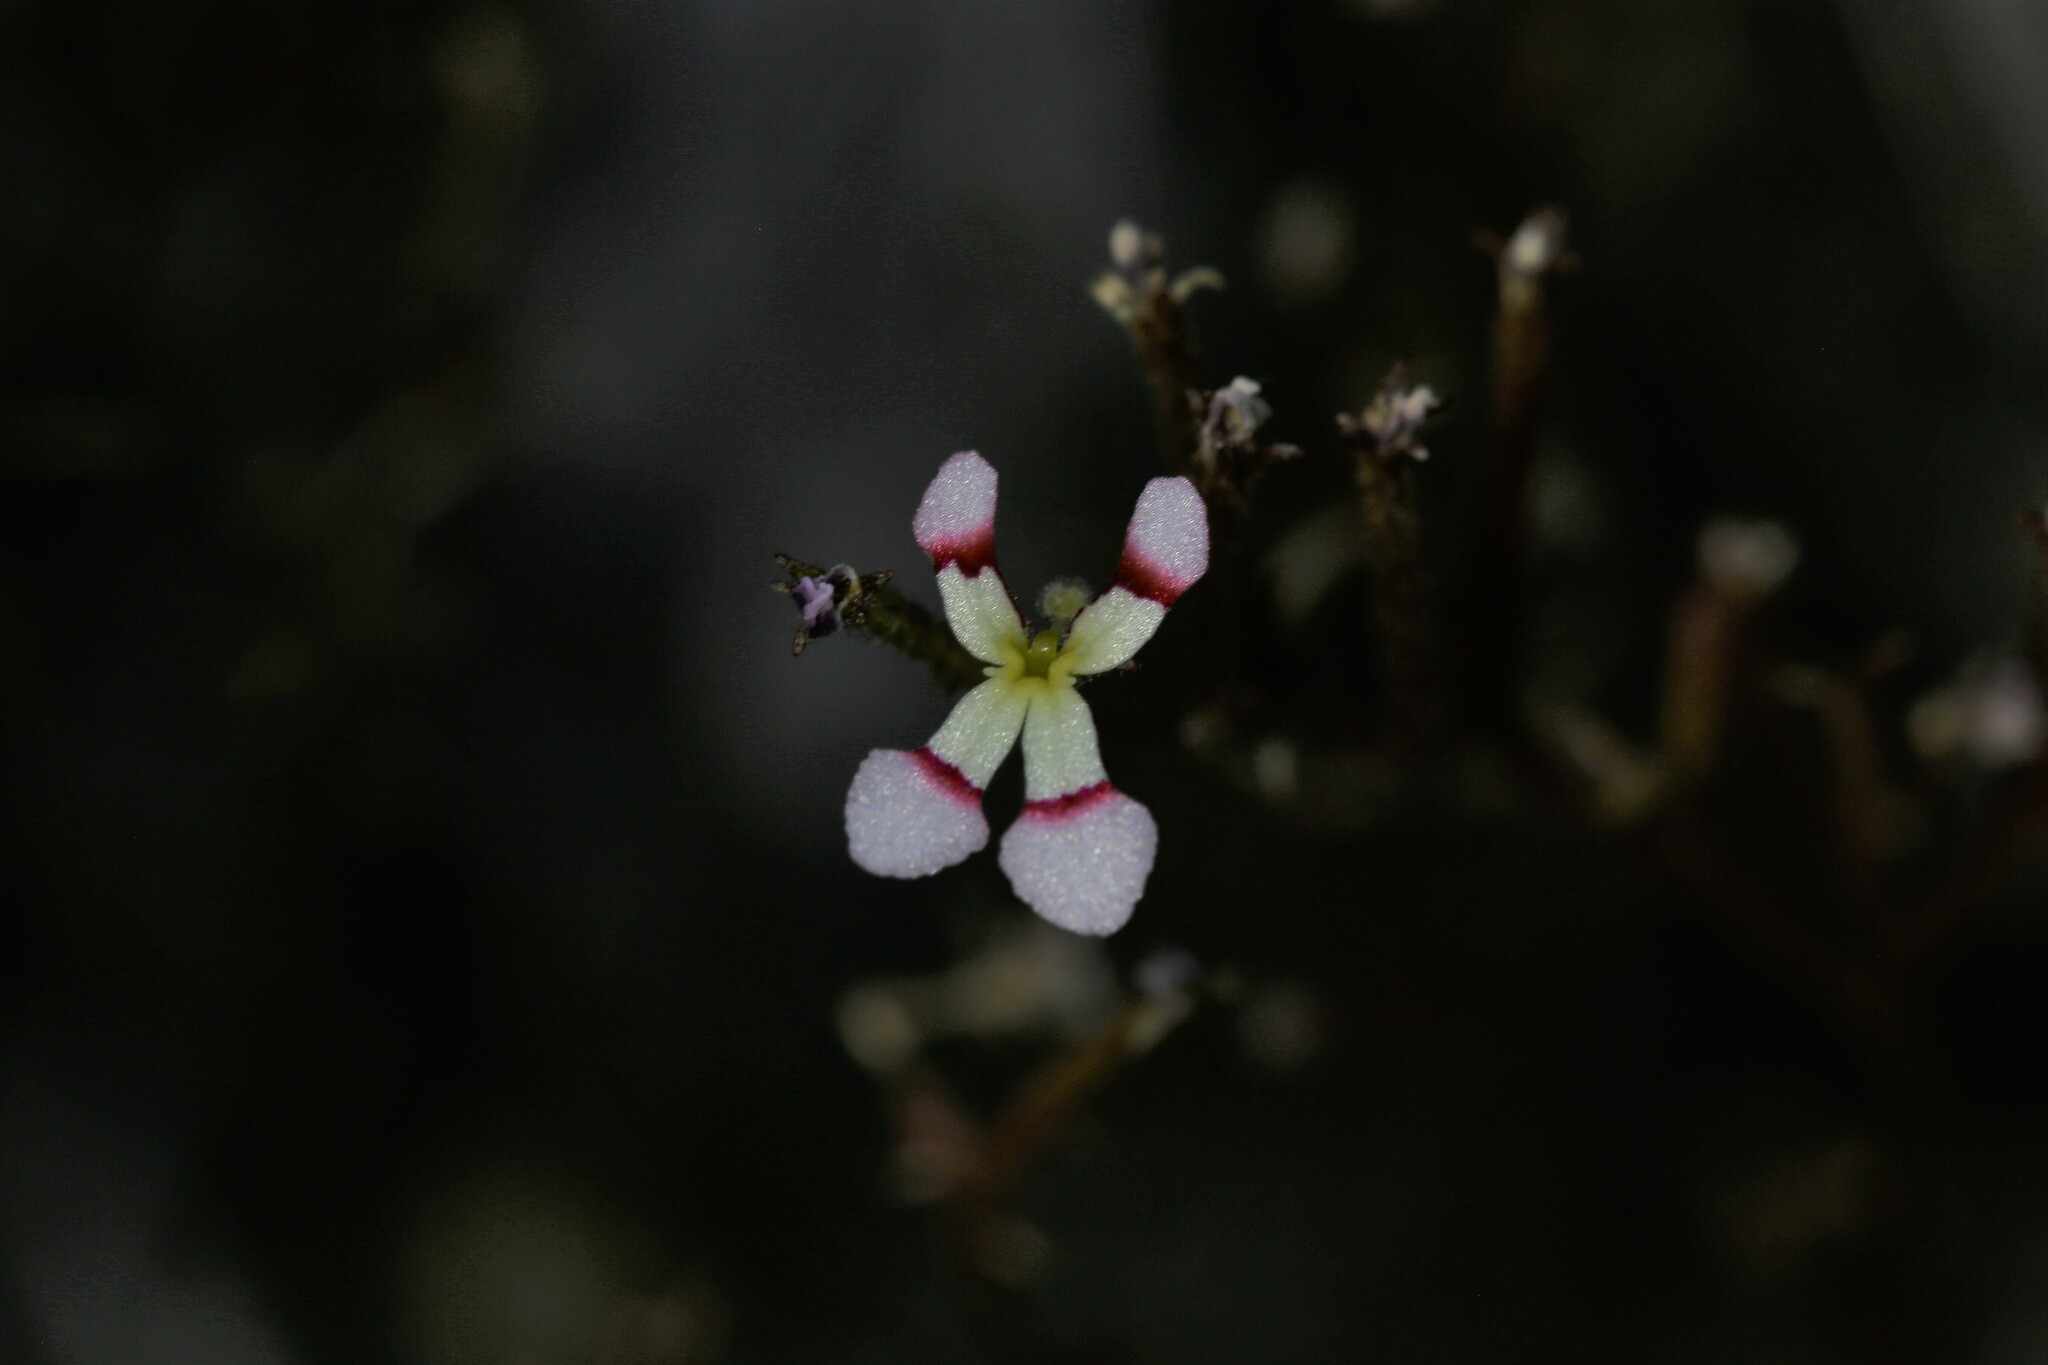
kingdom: Plantae
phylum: Tracheophyta
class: Magnoliopsida
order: Asterales
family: Stylidiaceae
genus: Stylidium
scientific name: Stylidium utricularioides
